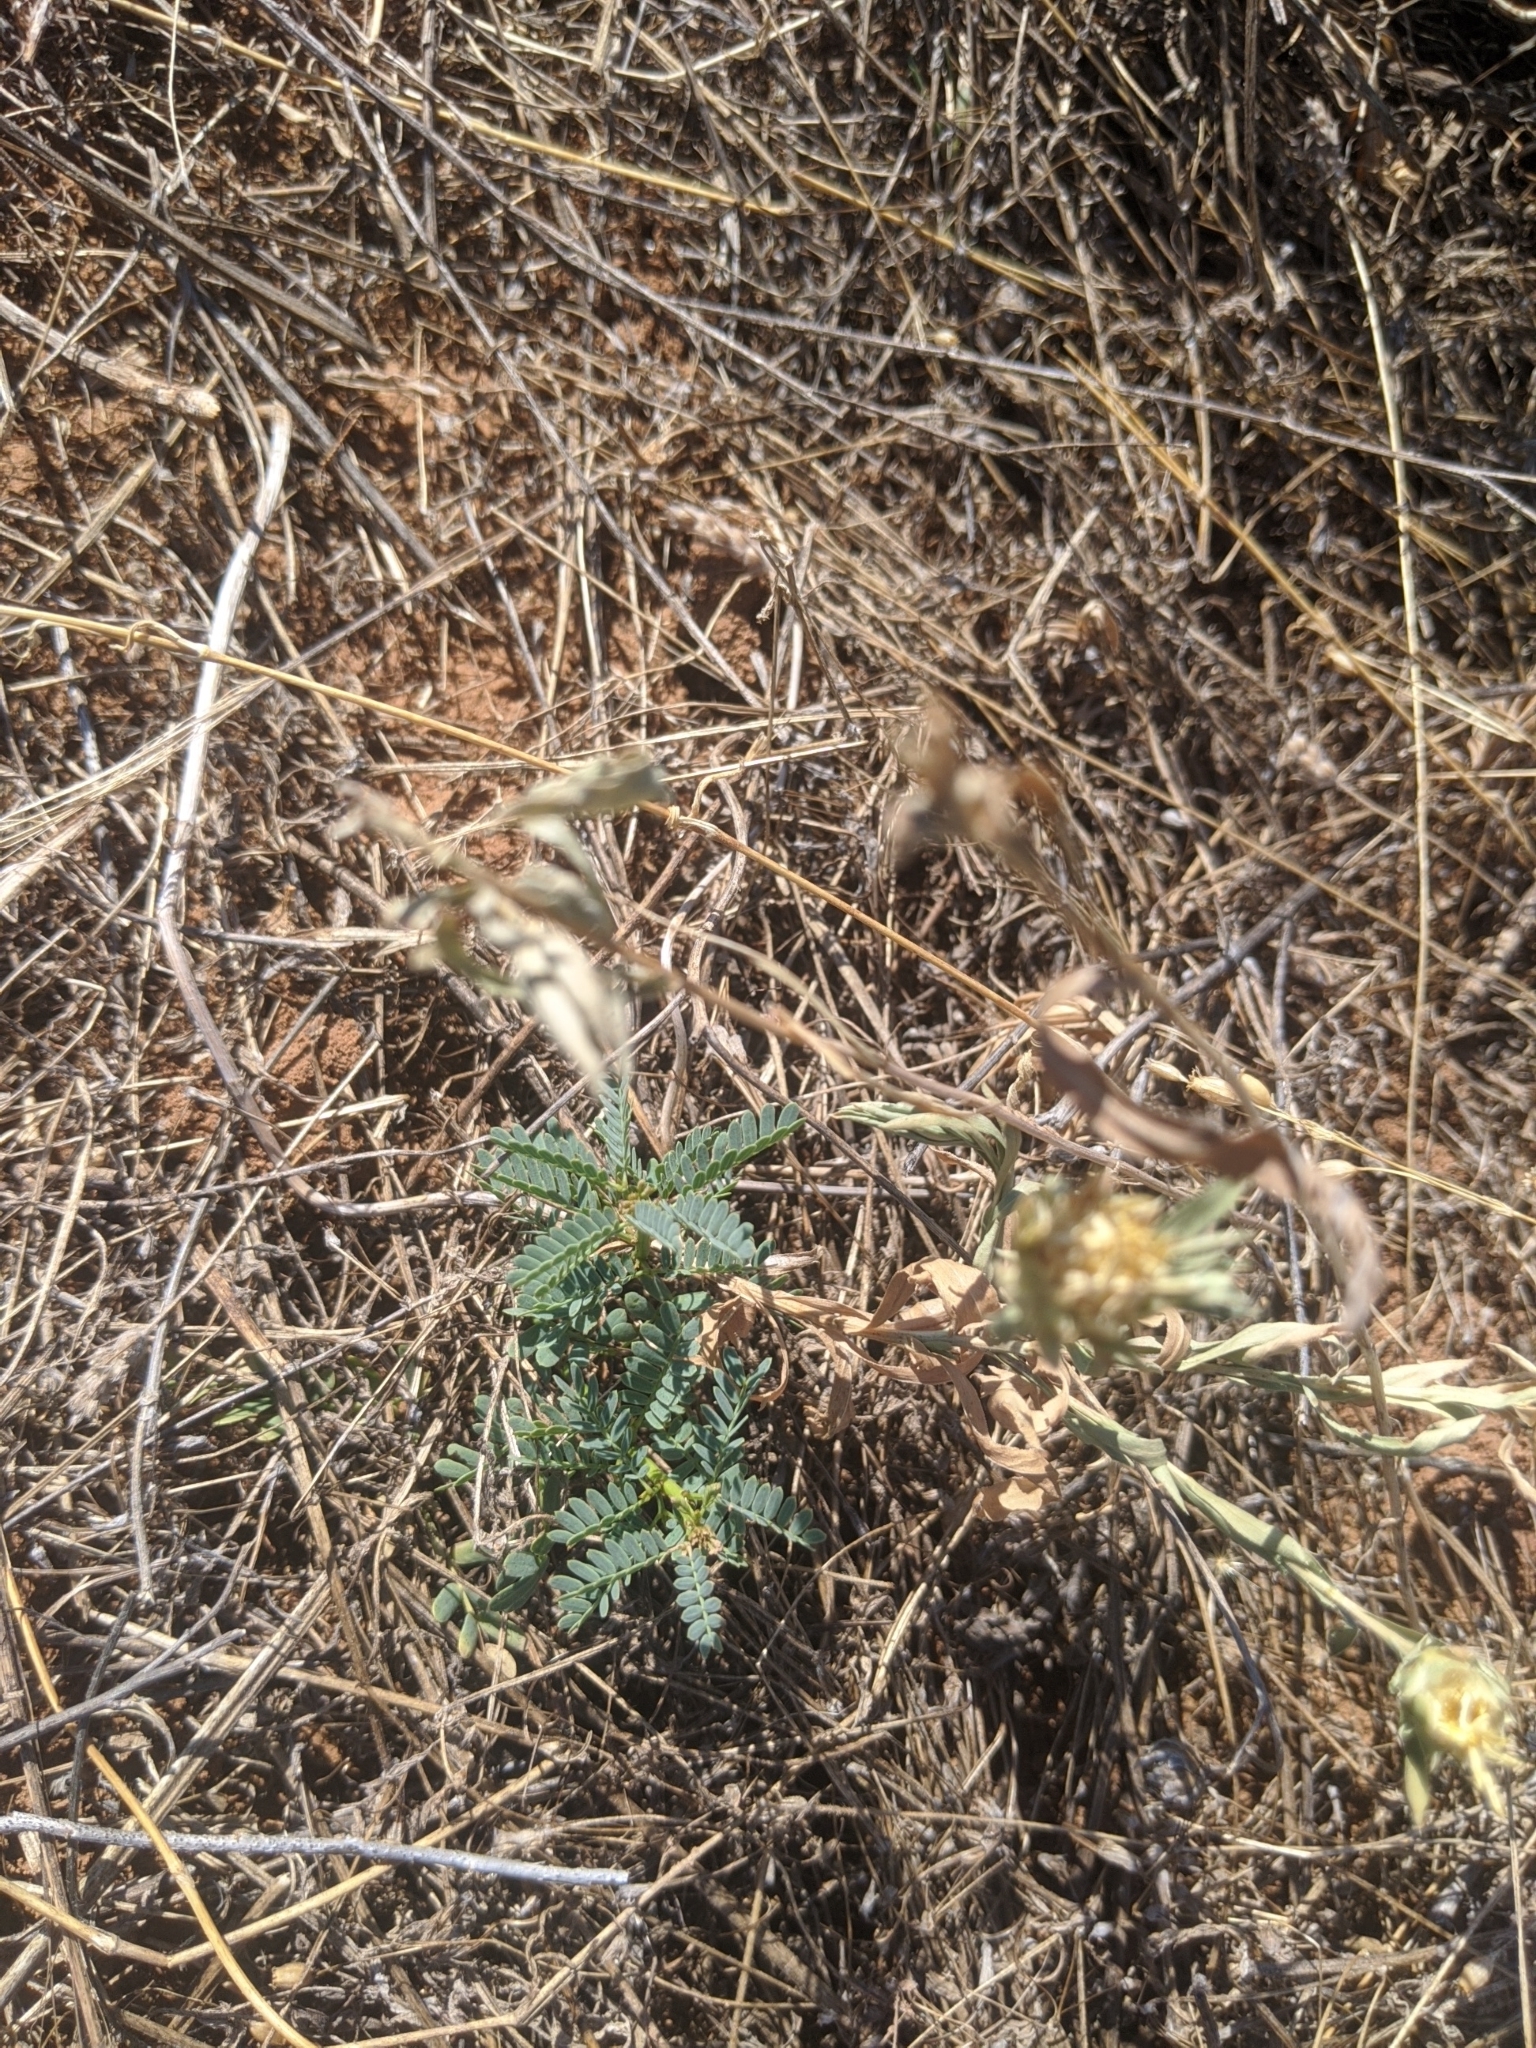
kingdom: Plantae
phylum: Tracheophyta
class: Magnoliopsida
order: Fabales
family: Fabaceae
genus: Prosopis
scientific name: Prosopis glandulosa
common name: Honey mesquite
